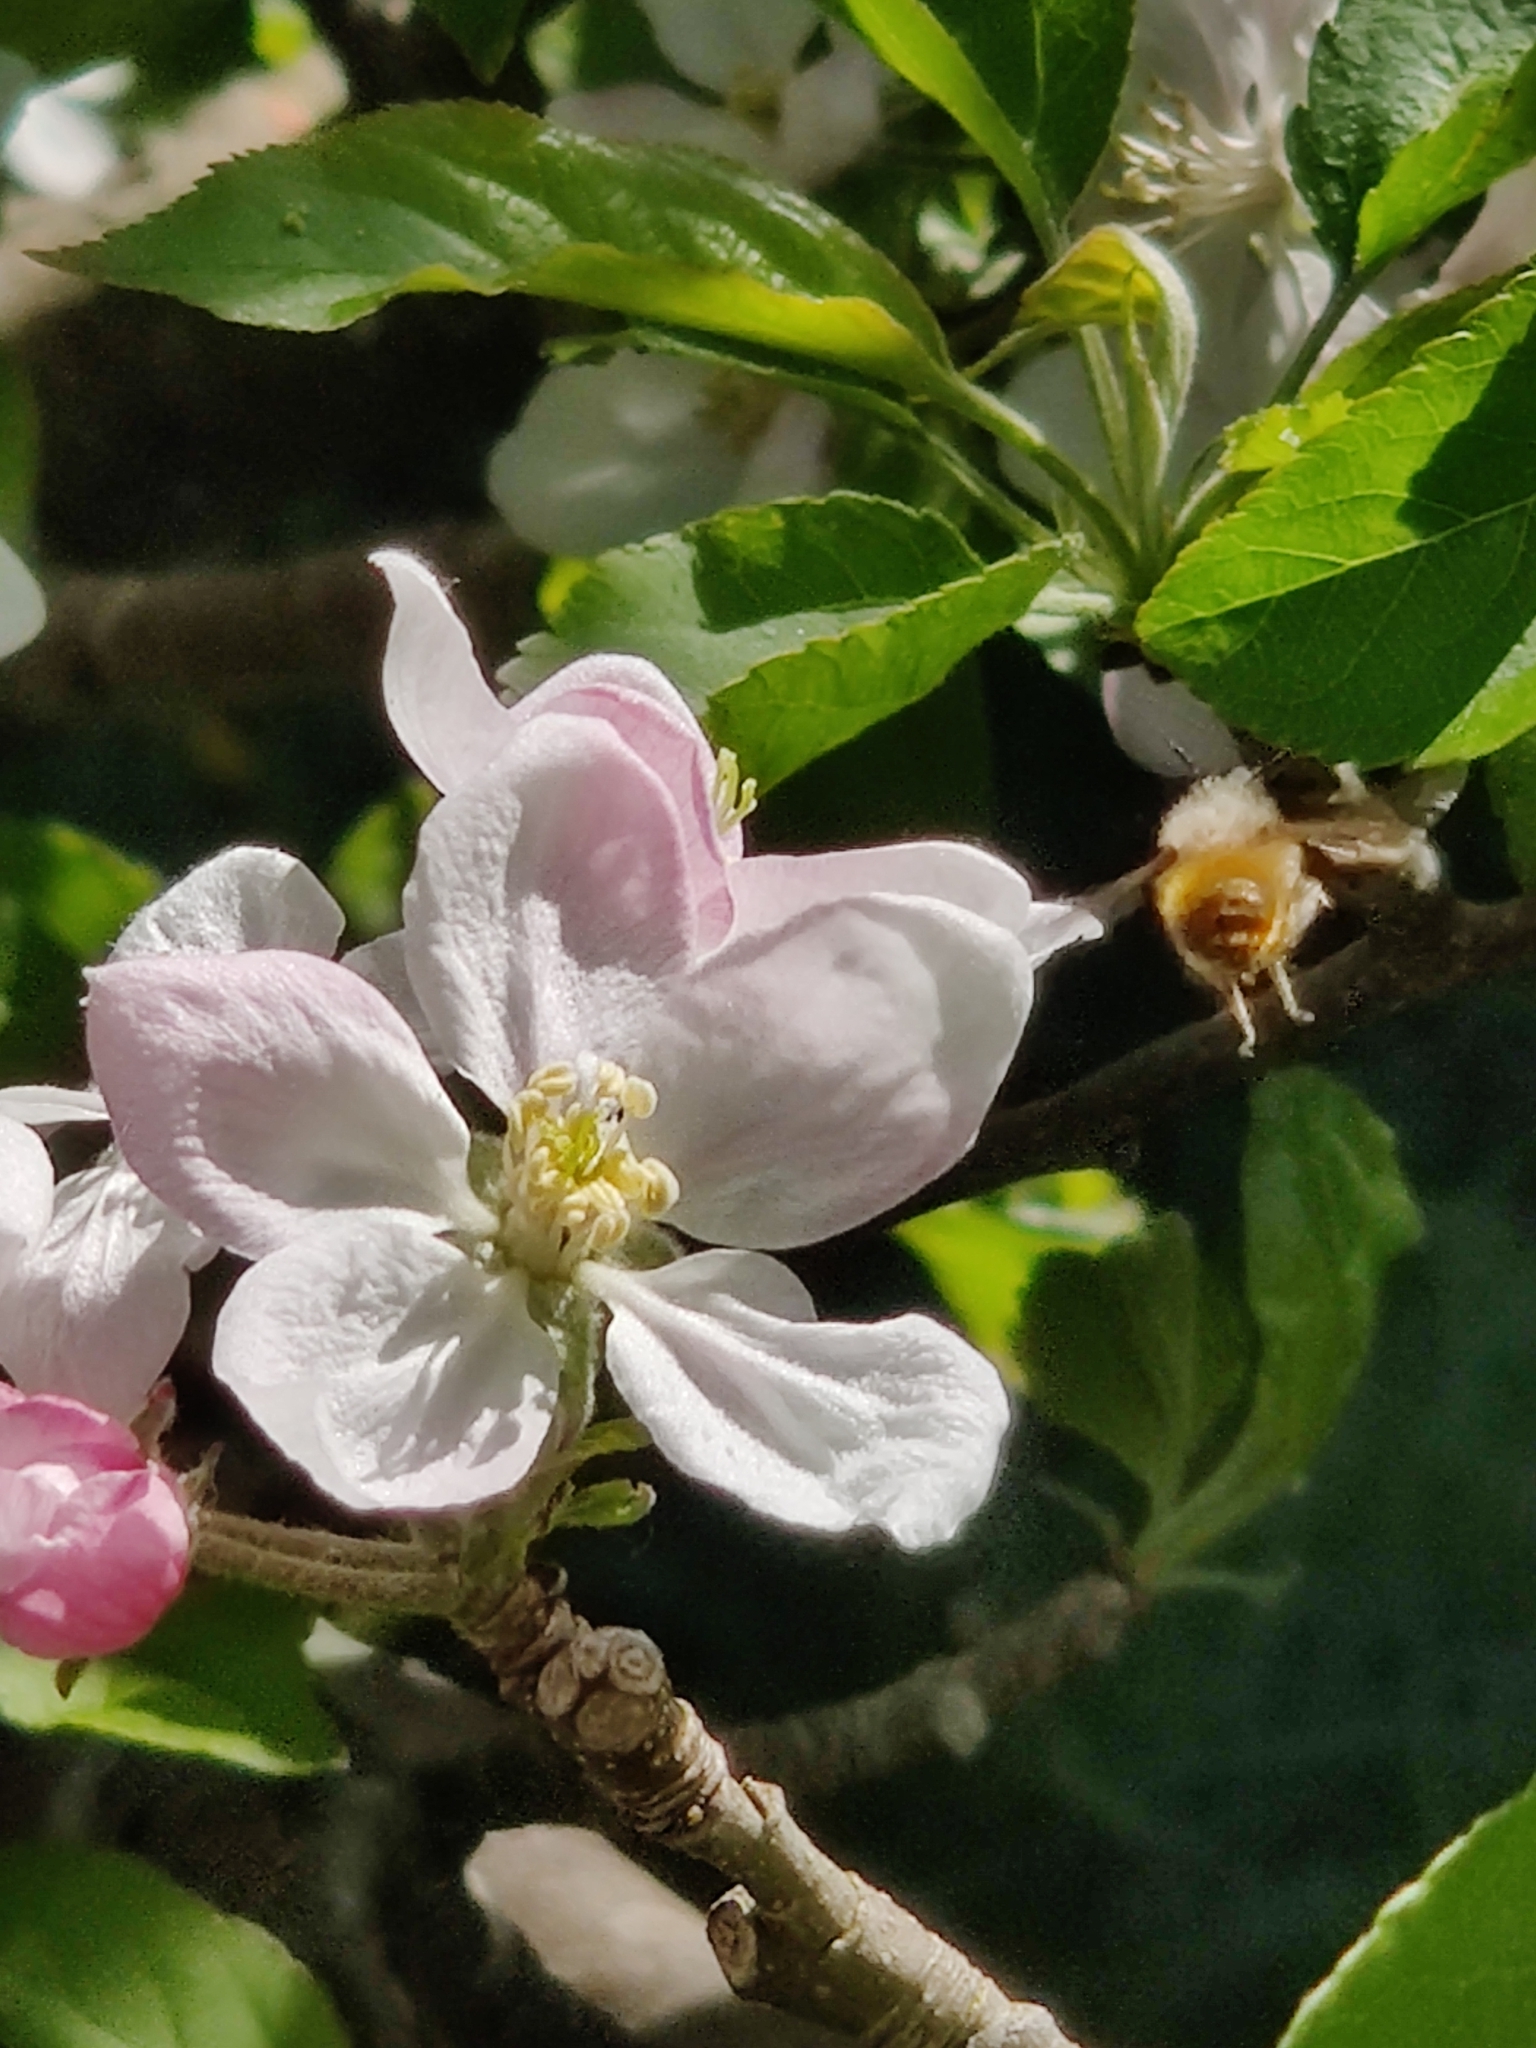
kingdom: Animalia
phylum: Arthropoda
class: Insecta
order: Hymenoptera
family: Megachilidae
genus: Osmia
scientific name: Osmia bicornis
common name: Red mason bee
